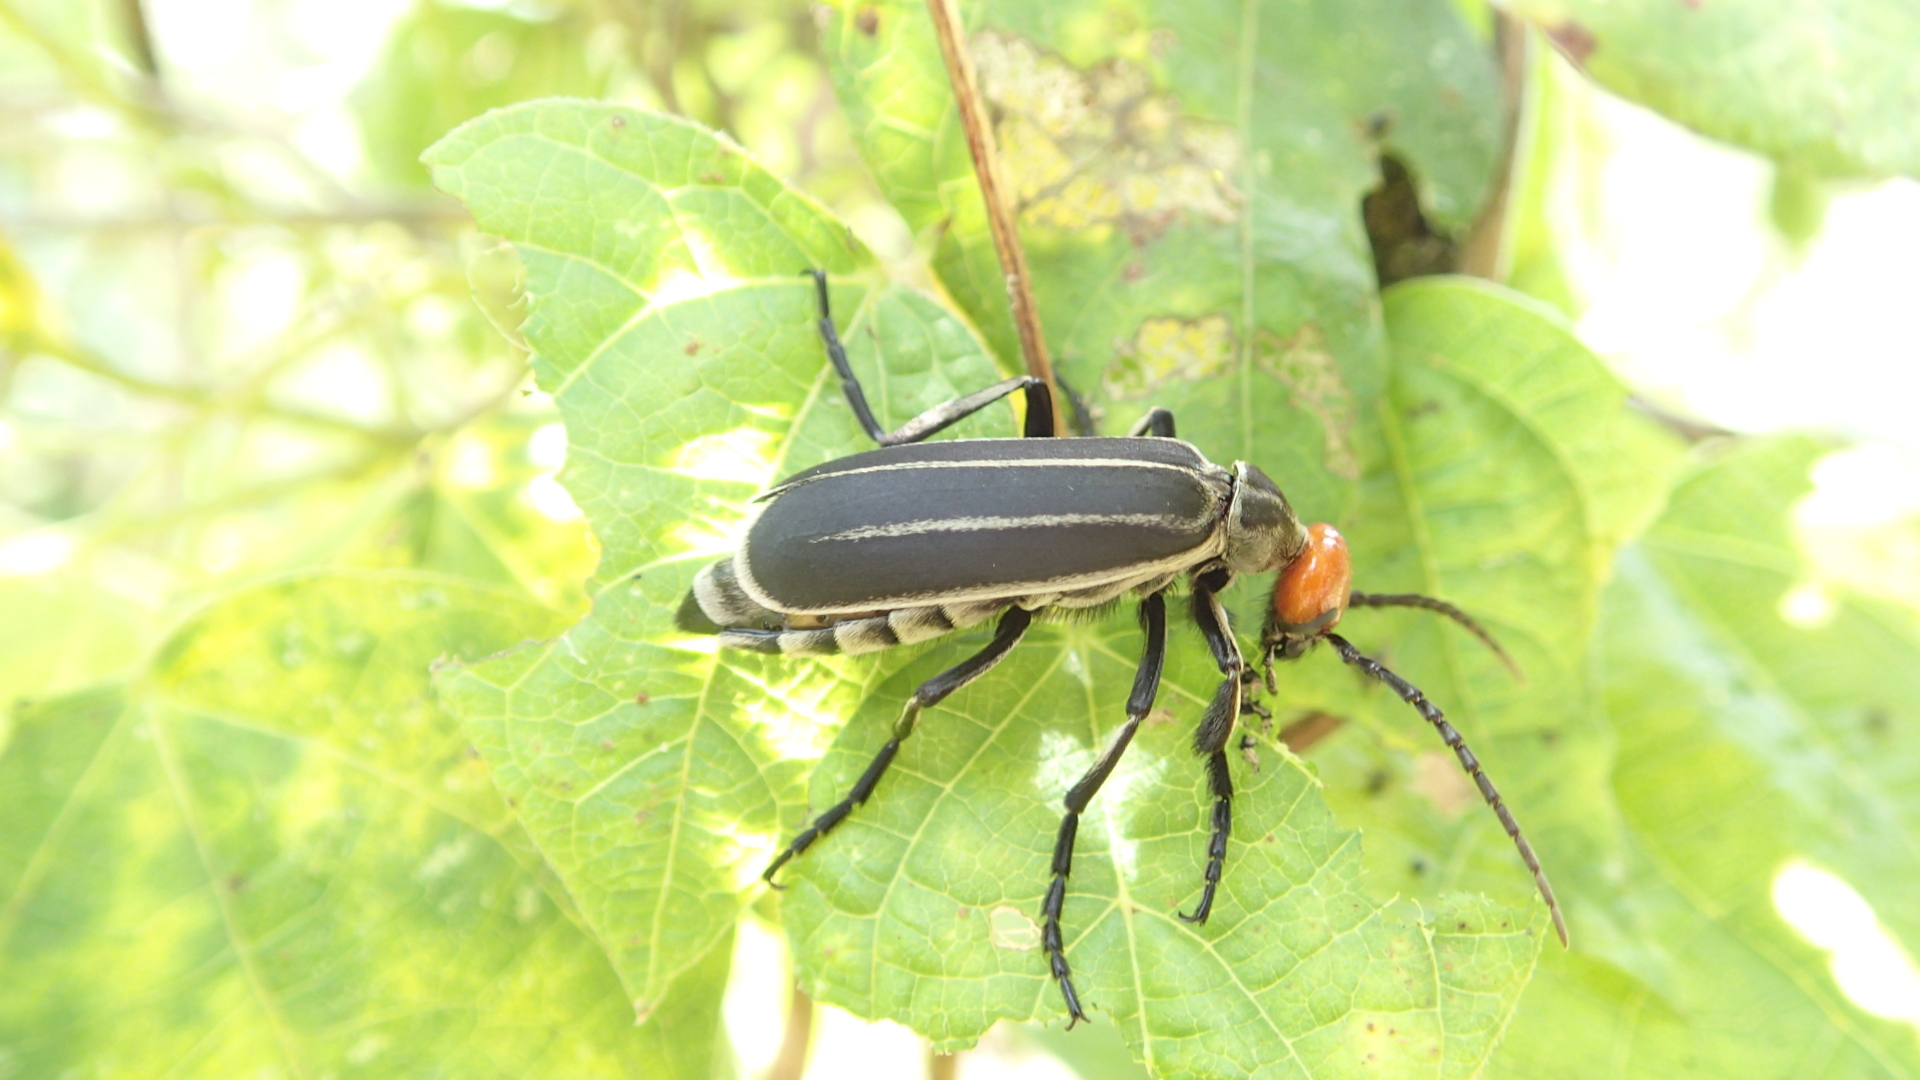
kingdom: Animalia
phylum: Arthropoda
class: Insecta
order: Coleoptera
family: Meloidae
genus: Epicauta
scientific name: Epicauta waterhousei
